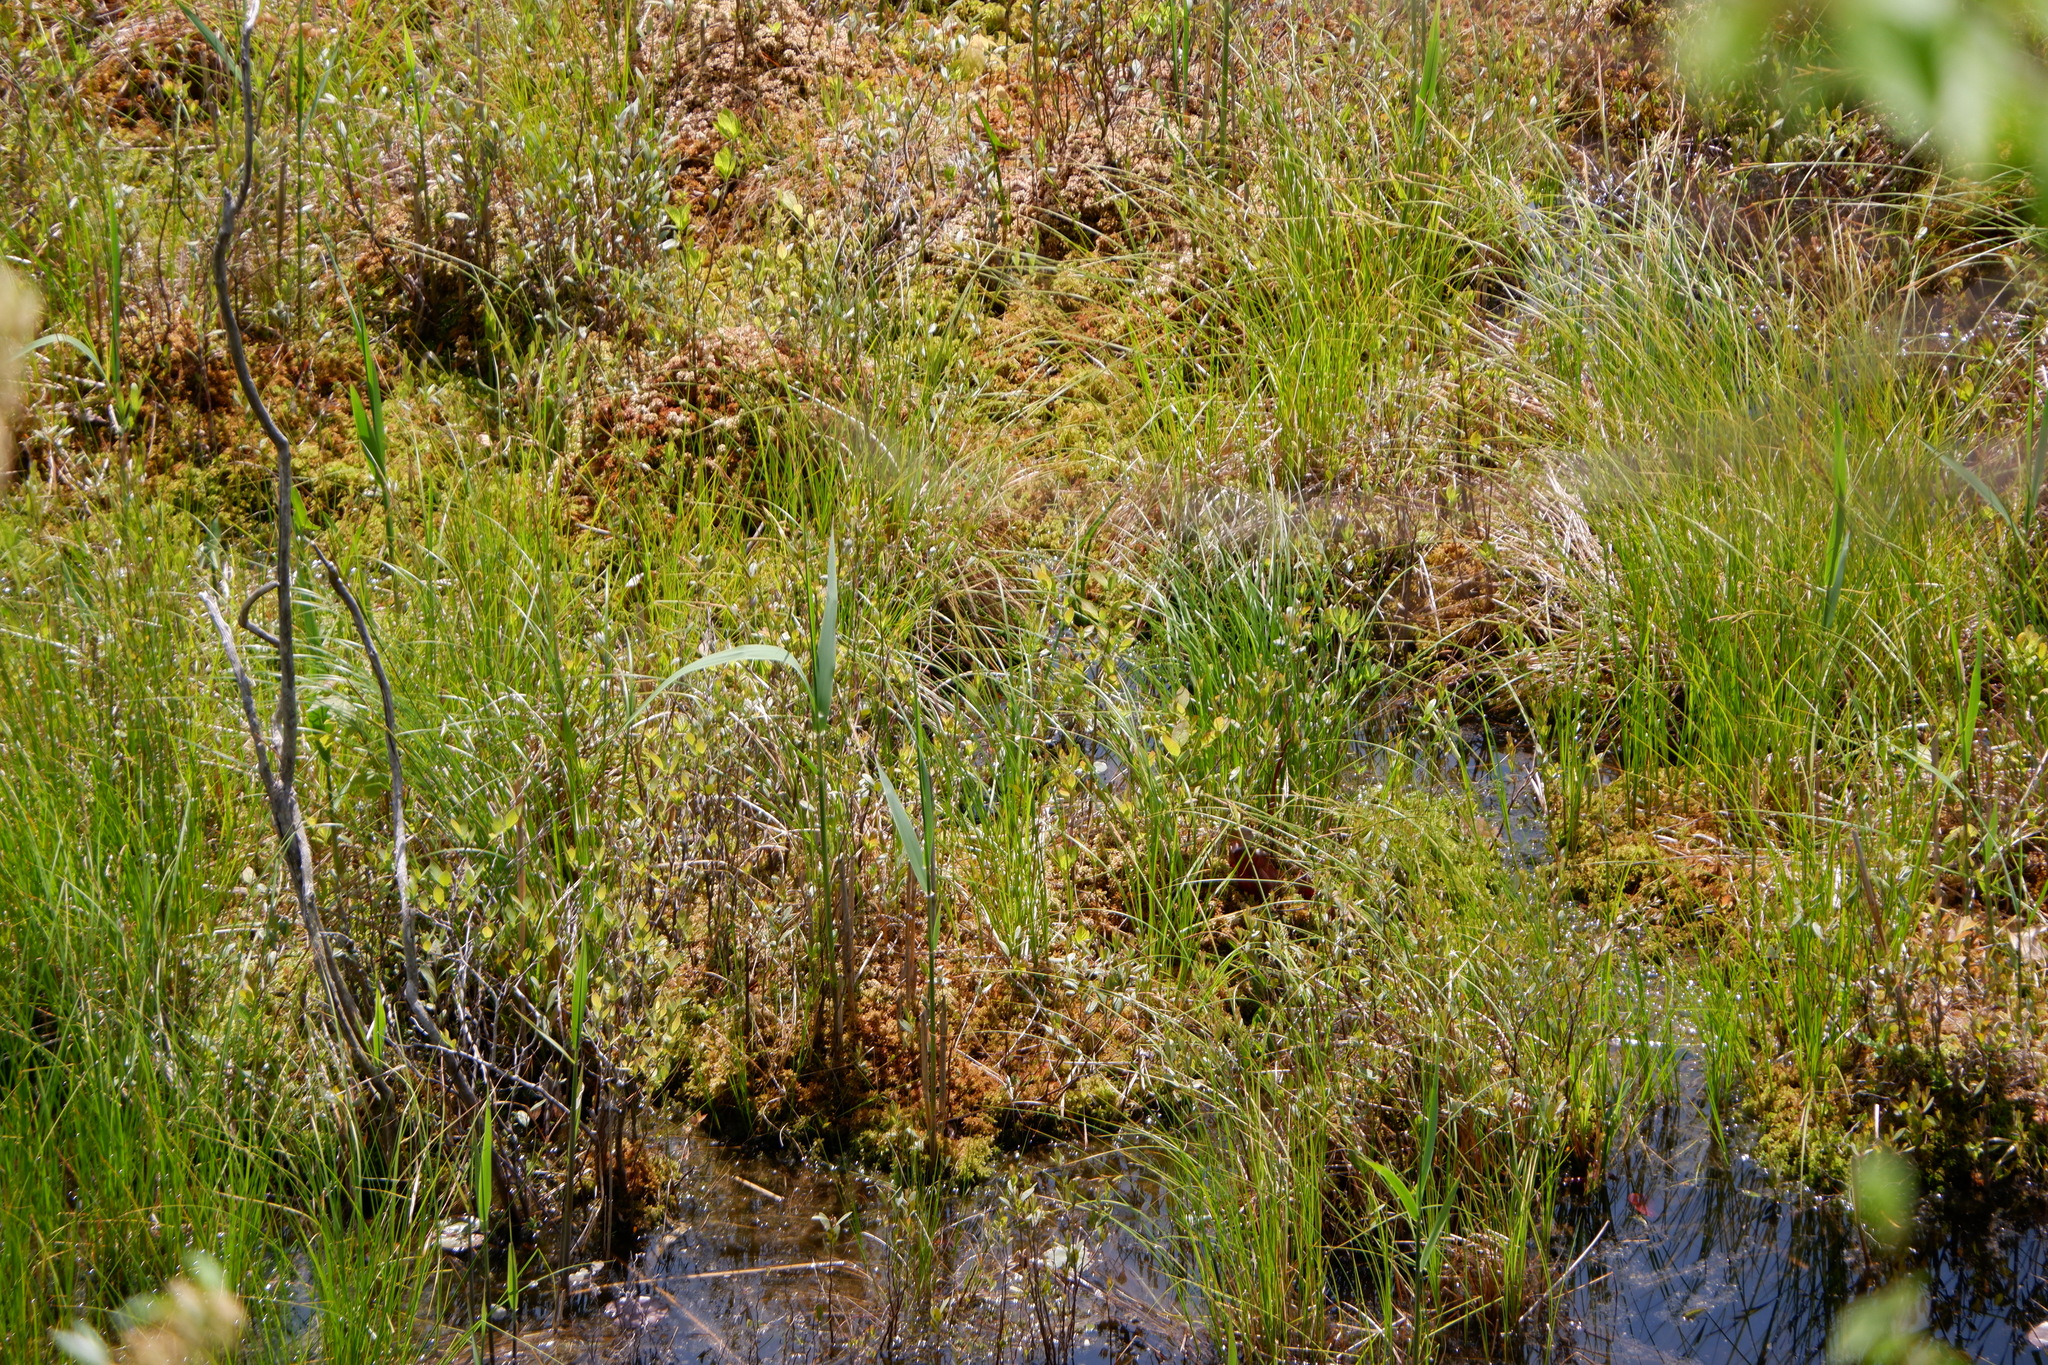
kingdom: Plantae
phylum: Tracheophyta
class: Liliopsida
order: Poales
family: Poaceae
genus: Phragmites
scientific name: Phragmites australis
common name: Common reed
